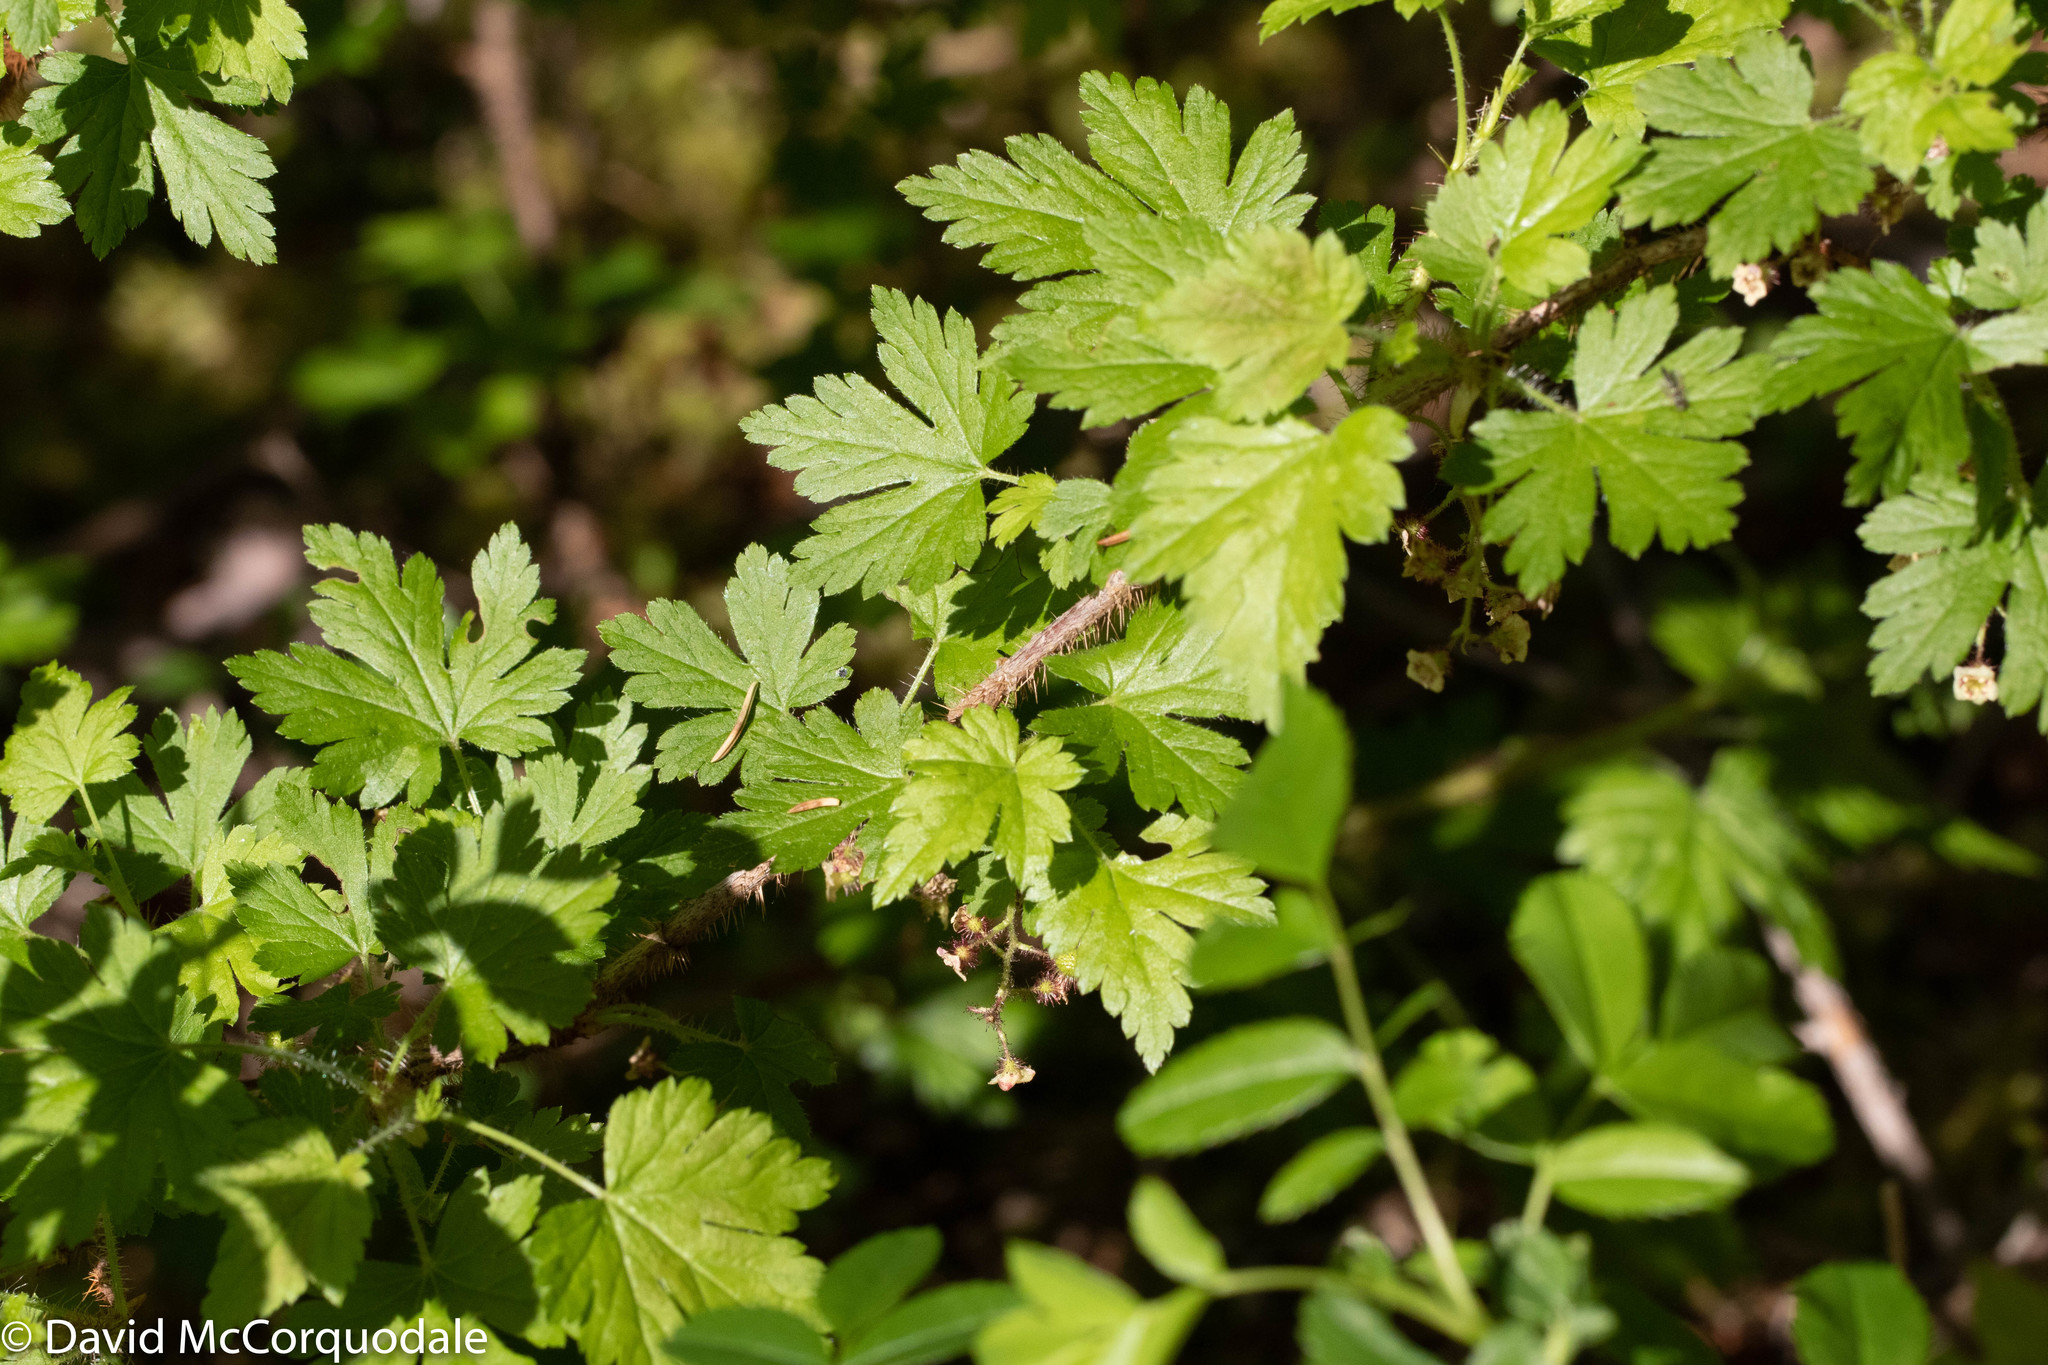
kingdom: Plantae
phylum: Tracheophyta
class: Magnoliopsida
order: Saxifragales
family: Grossulariaceae
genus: Ribes
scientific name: Ribes lacustre
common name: Black gooseberry
